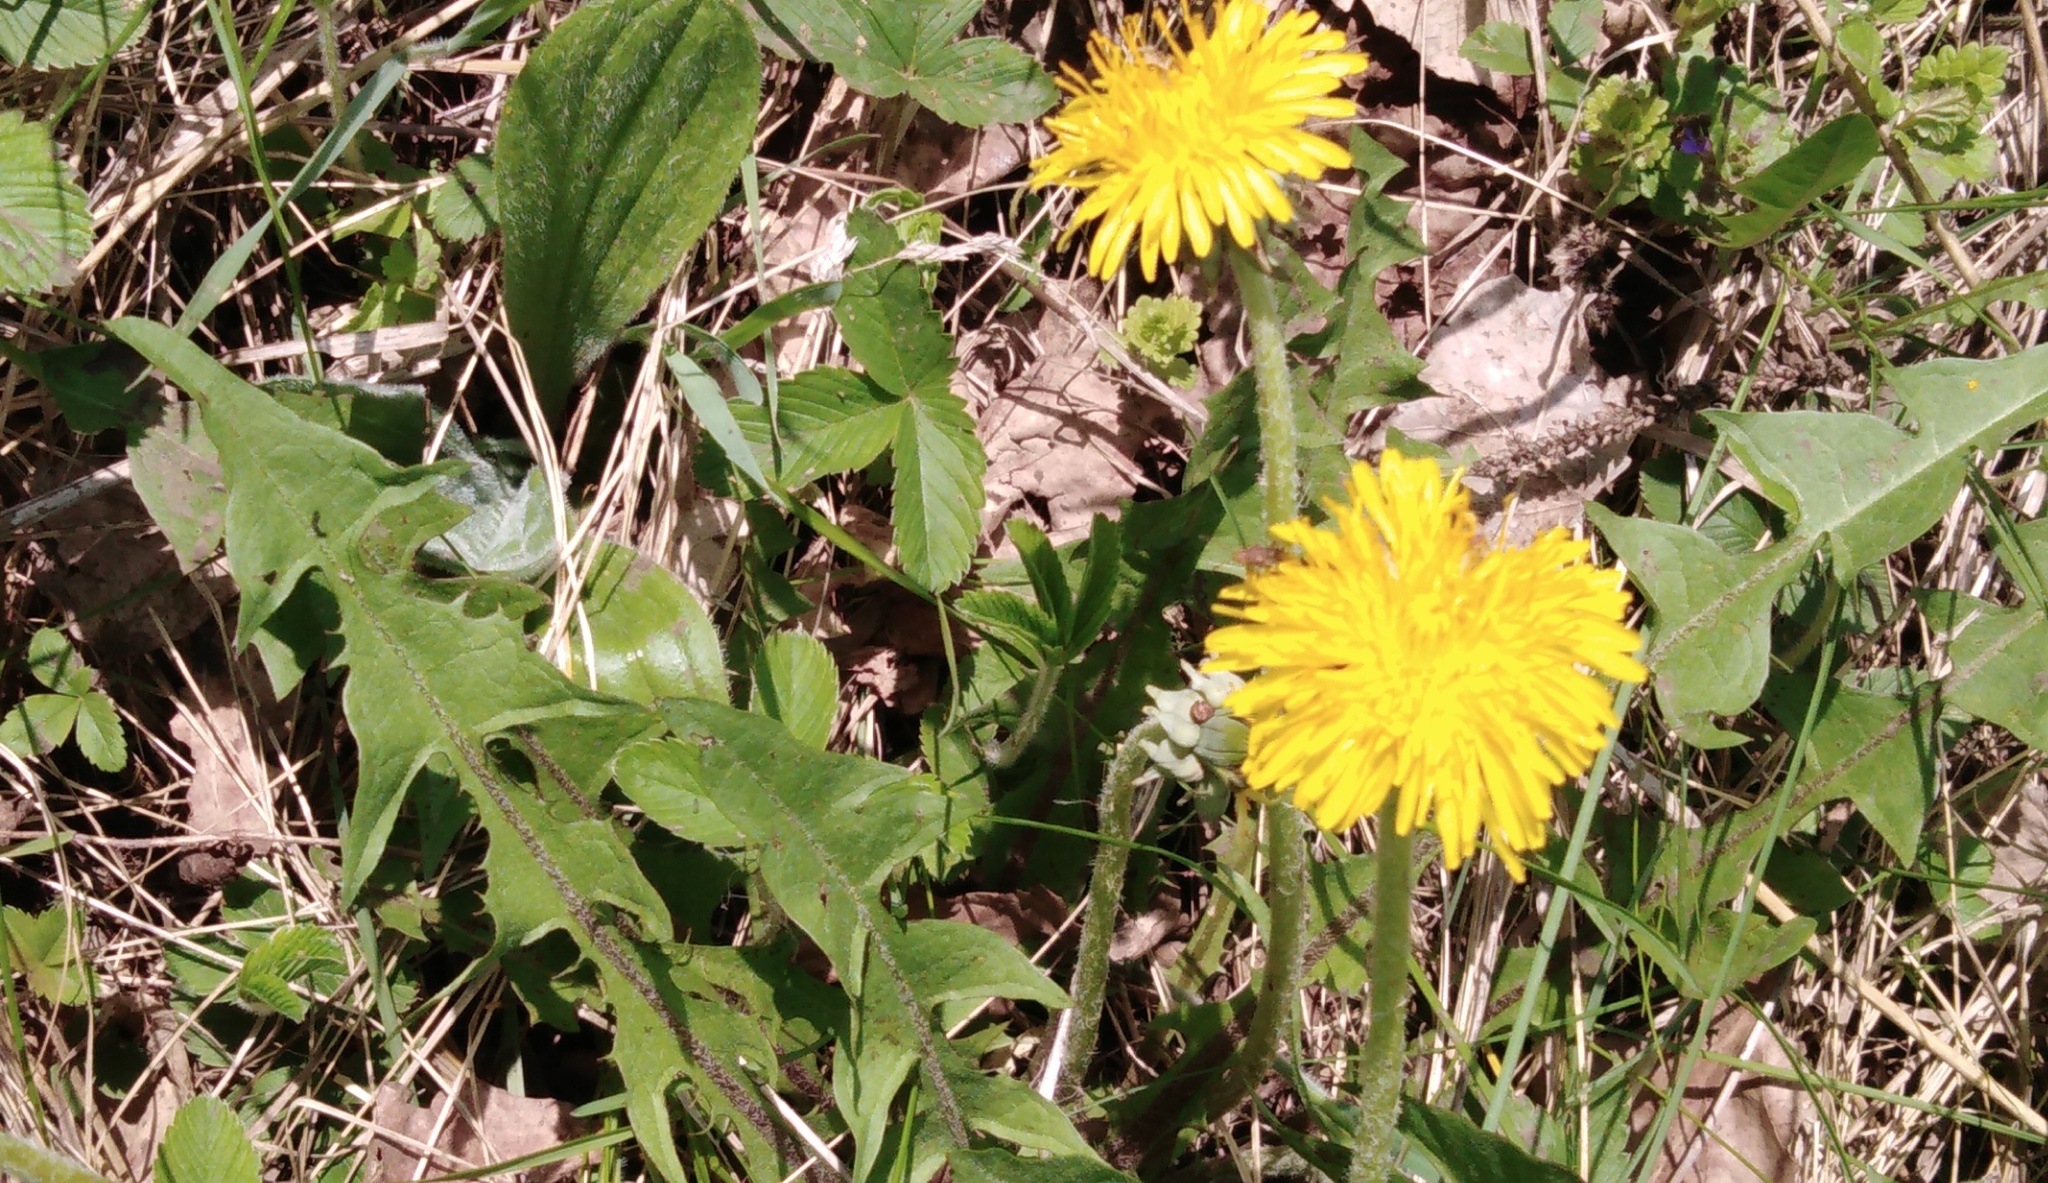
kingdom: Plantae
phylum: Tracheophyta
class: Magnoliopsida
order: Asterales
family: Asteraceae
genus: Taraxacum
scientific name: Taraxacum officinale
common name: Common dandelion
